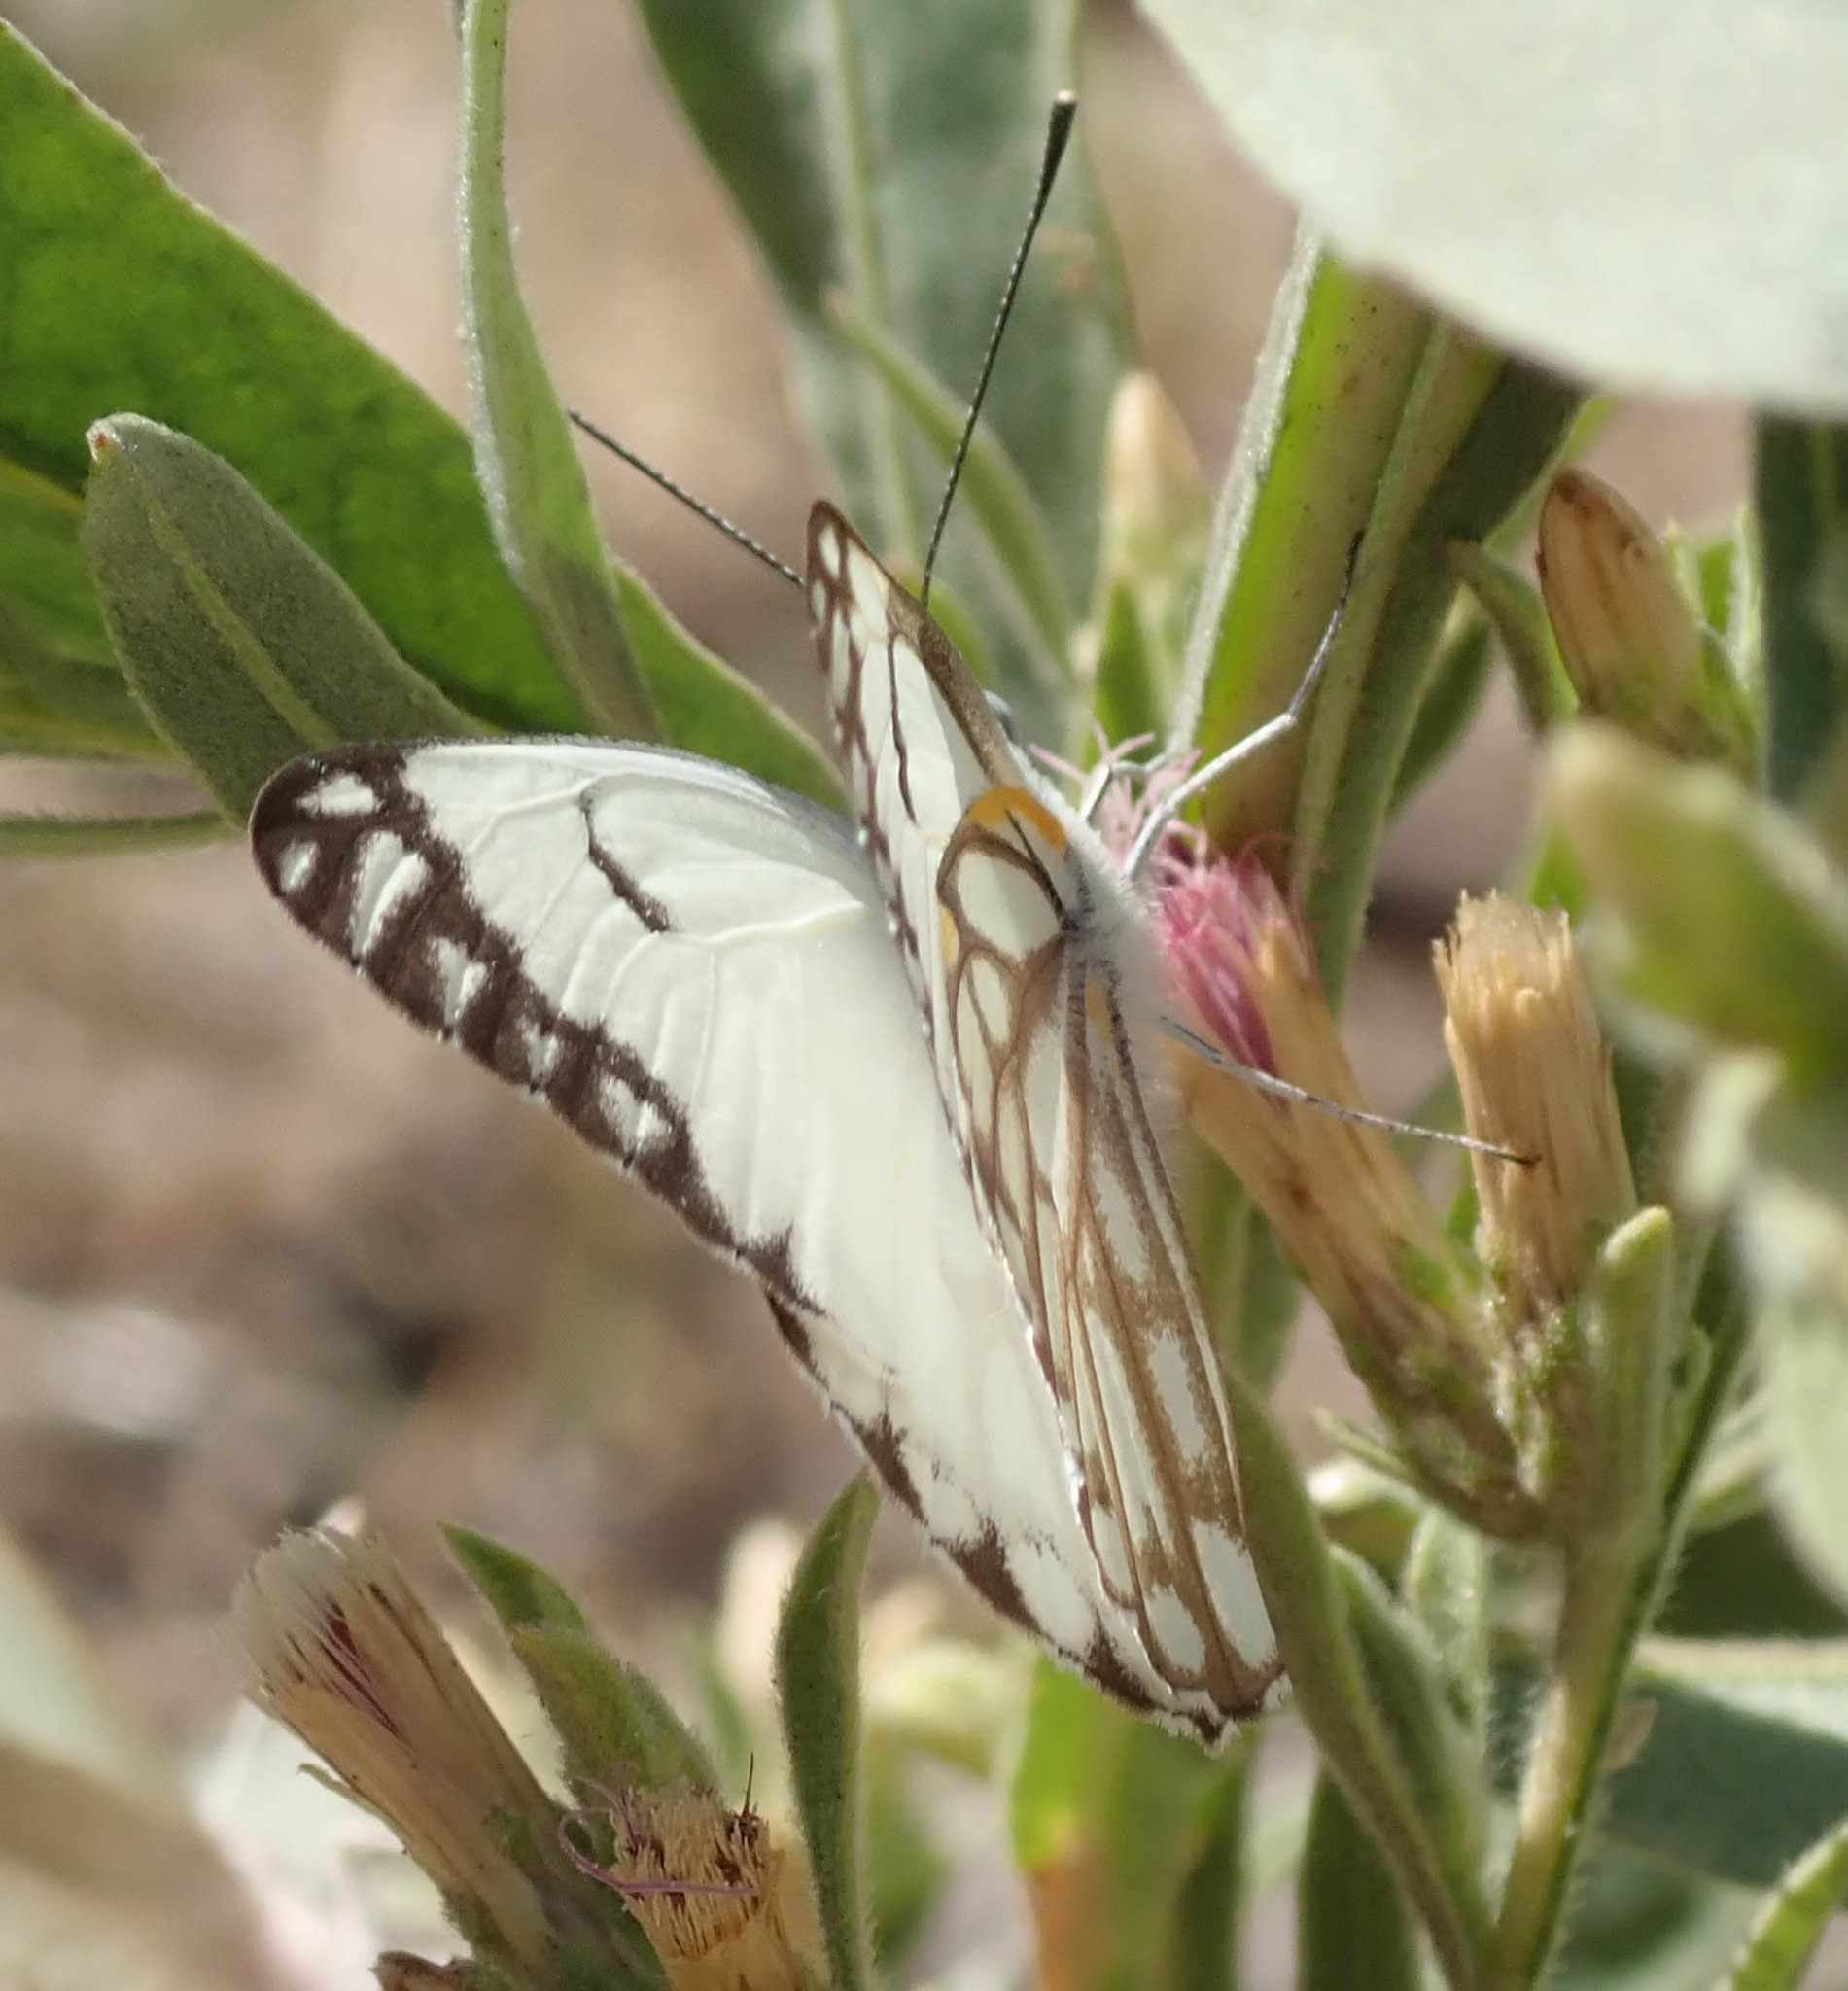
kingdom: Animalia
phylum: Arthropoda
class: Insecta
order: Lepidoptera
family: Pieridae
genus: Belenois
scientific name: Belenois aurota
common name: Brown-veined white
